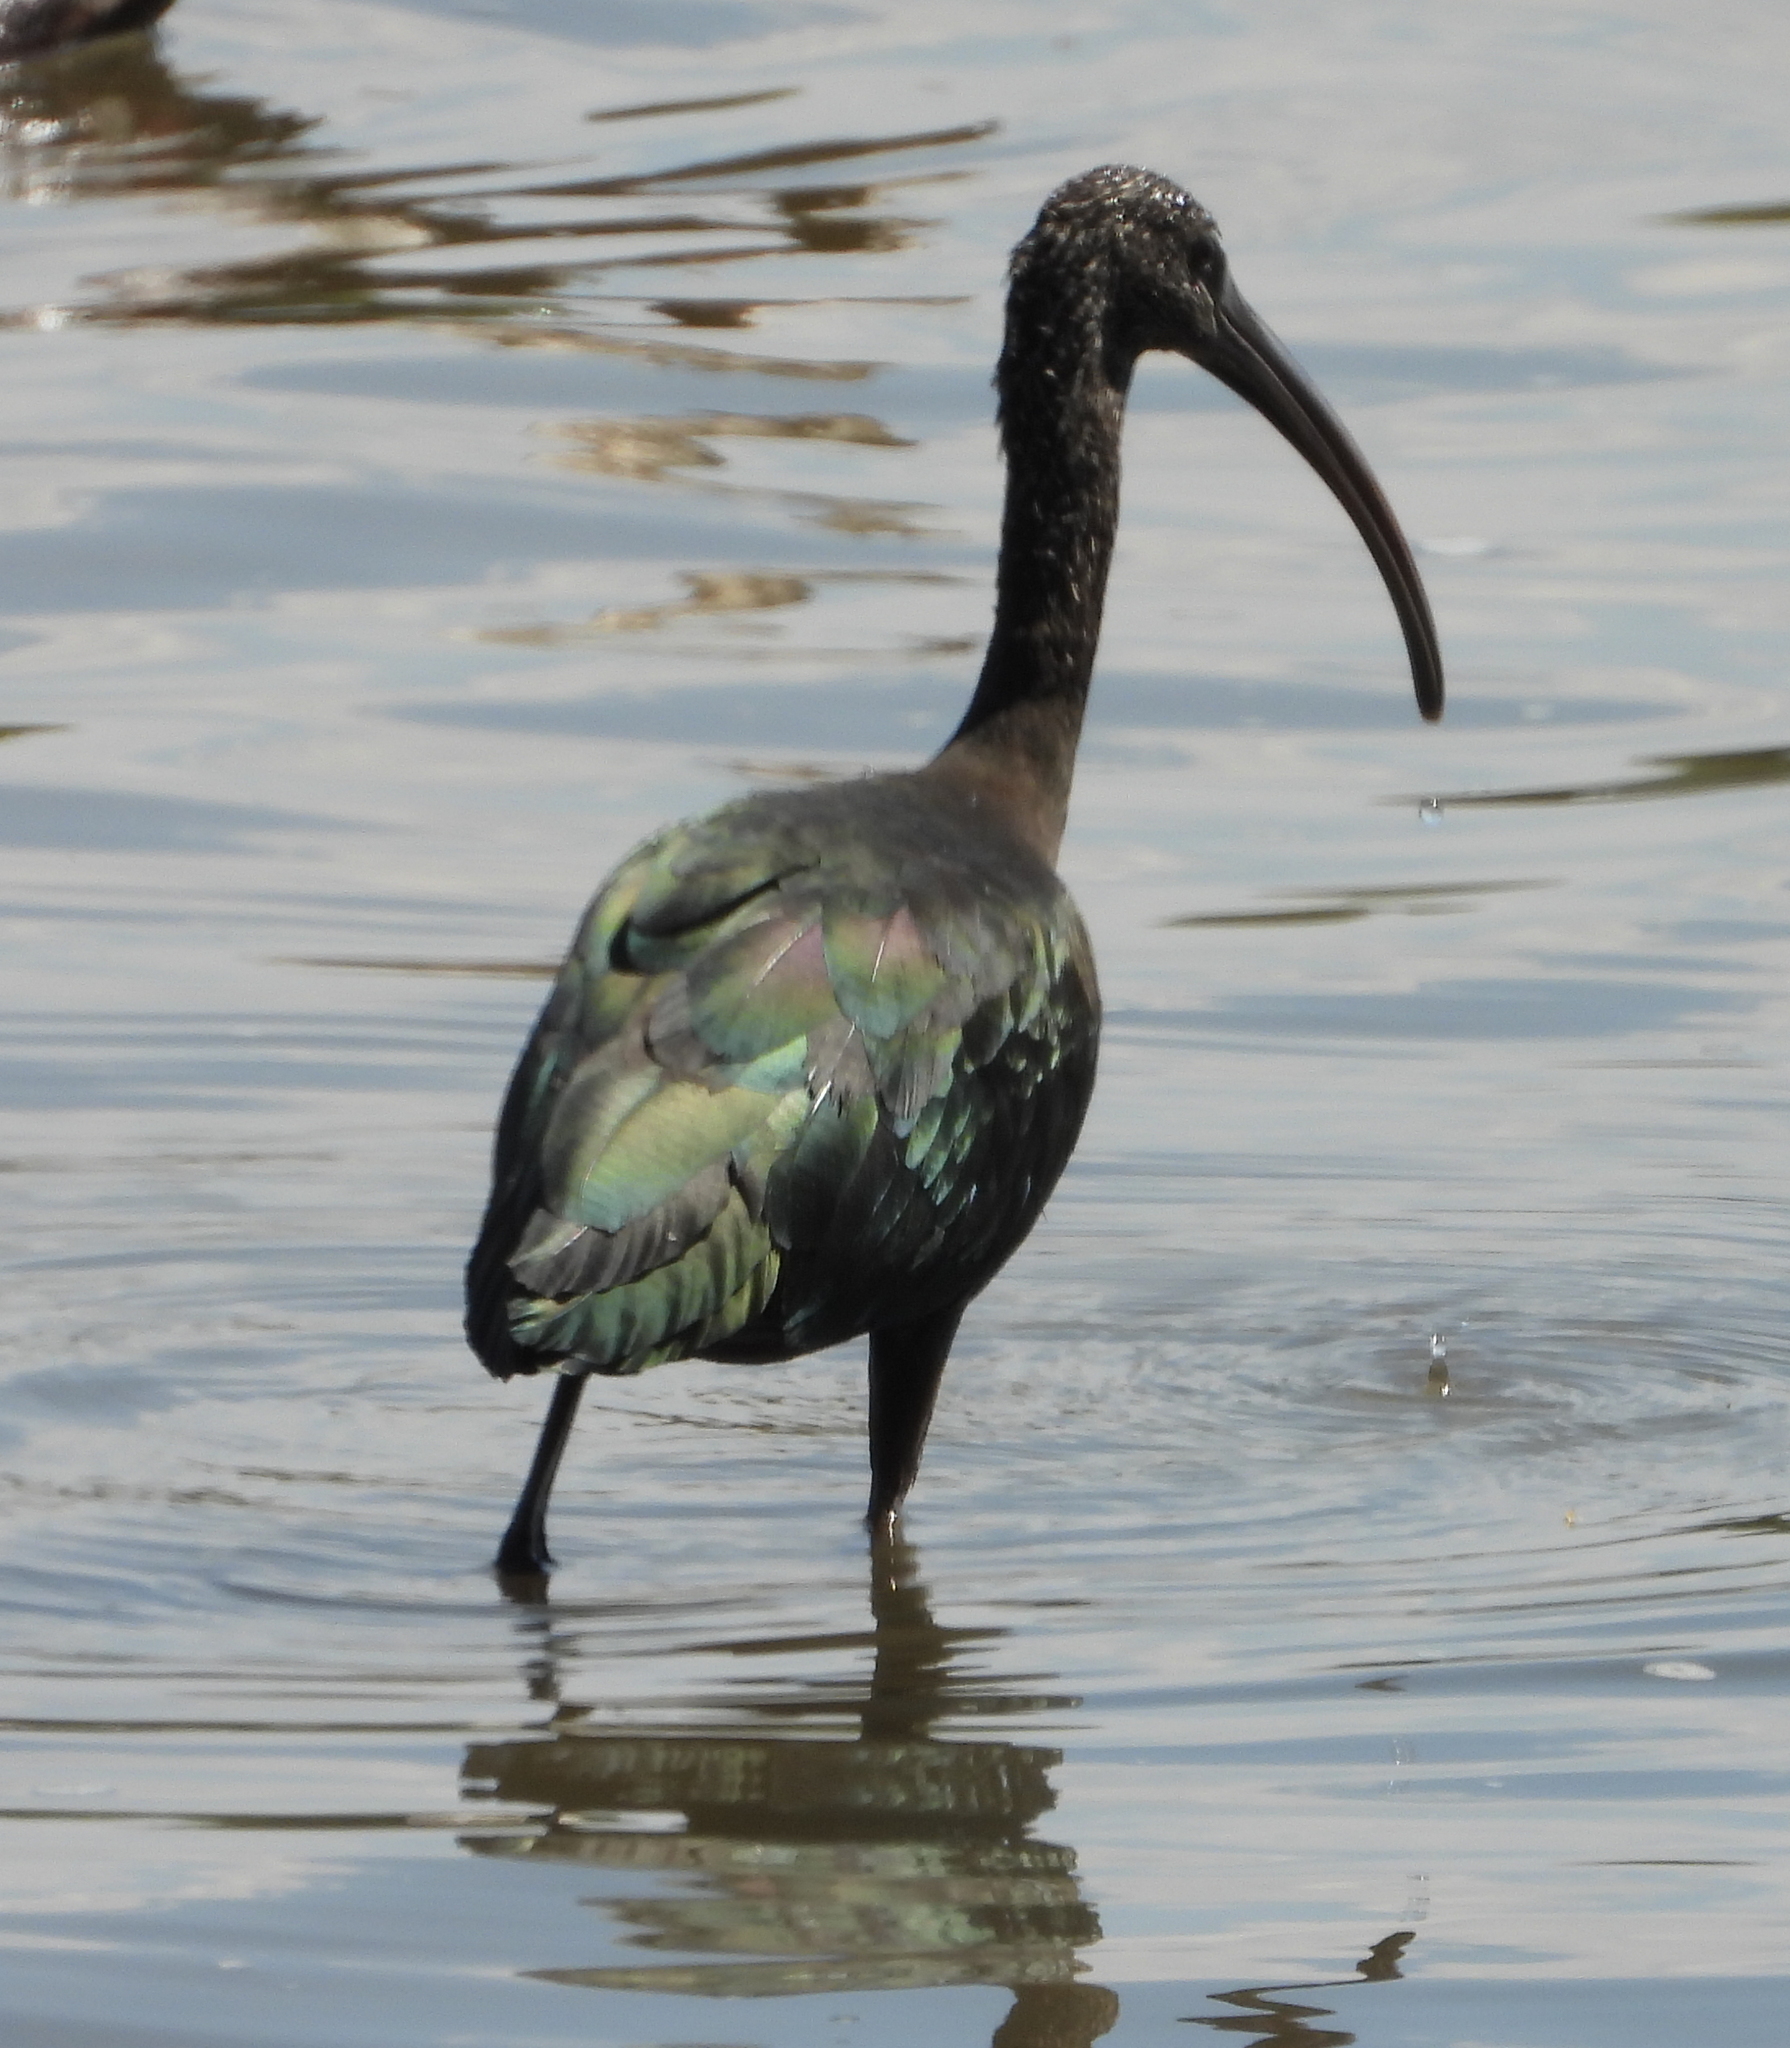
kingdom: Animalia
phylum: Chordata
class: Aves
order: Pelecaniformes
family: Threskiornithidae
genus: Plegadis
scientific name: Plegadis falcinellus
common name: Glossy ibis
